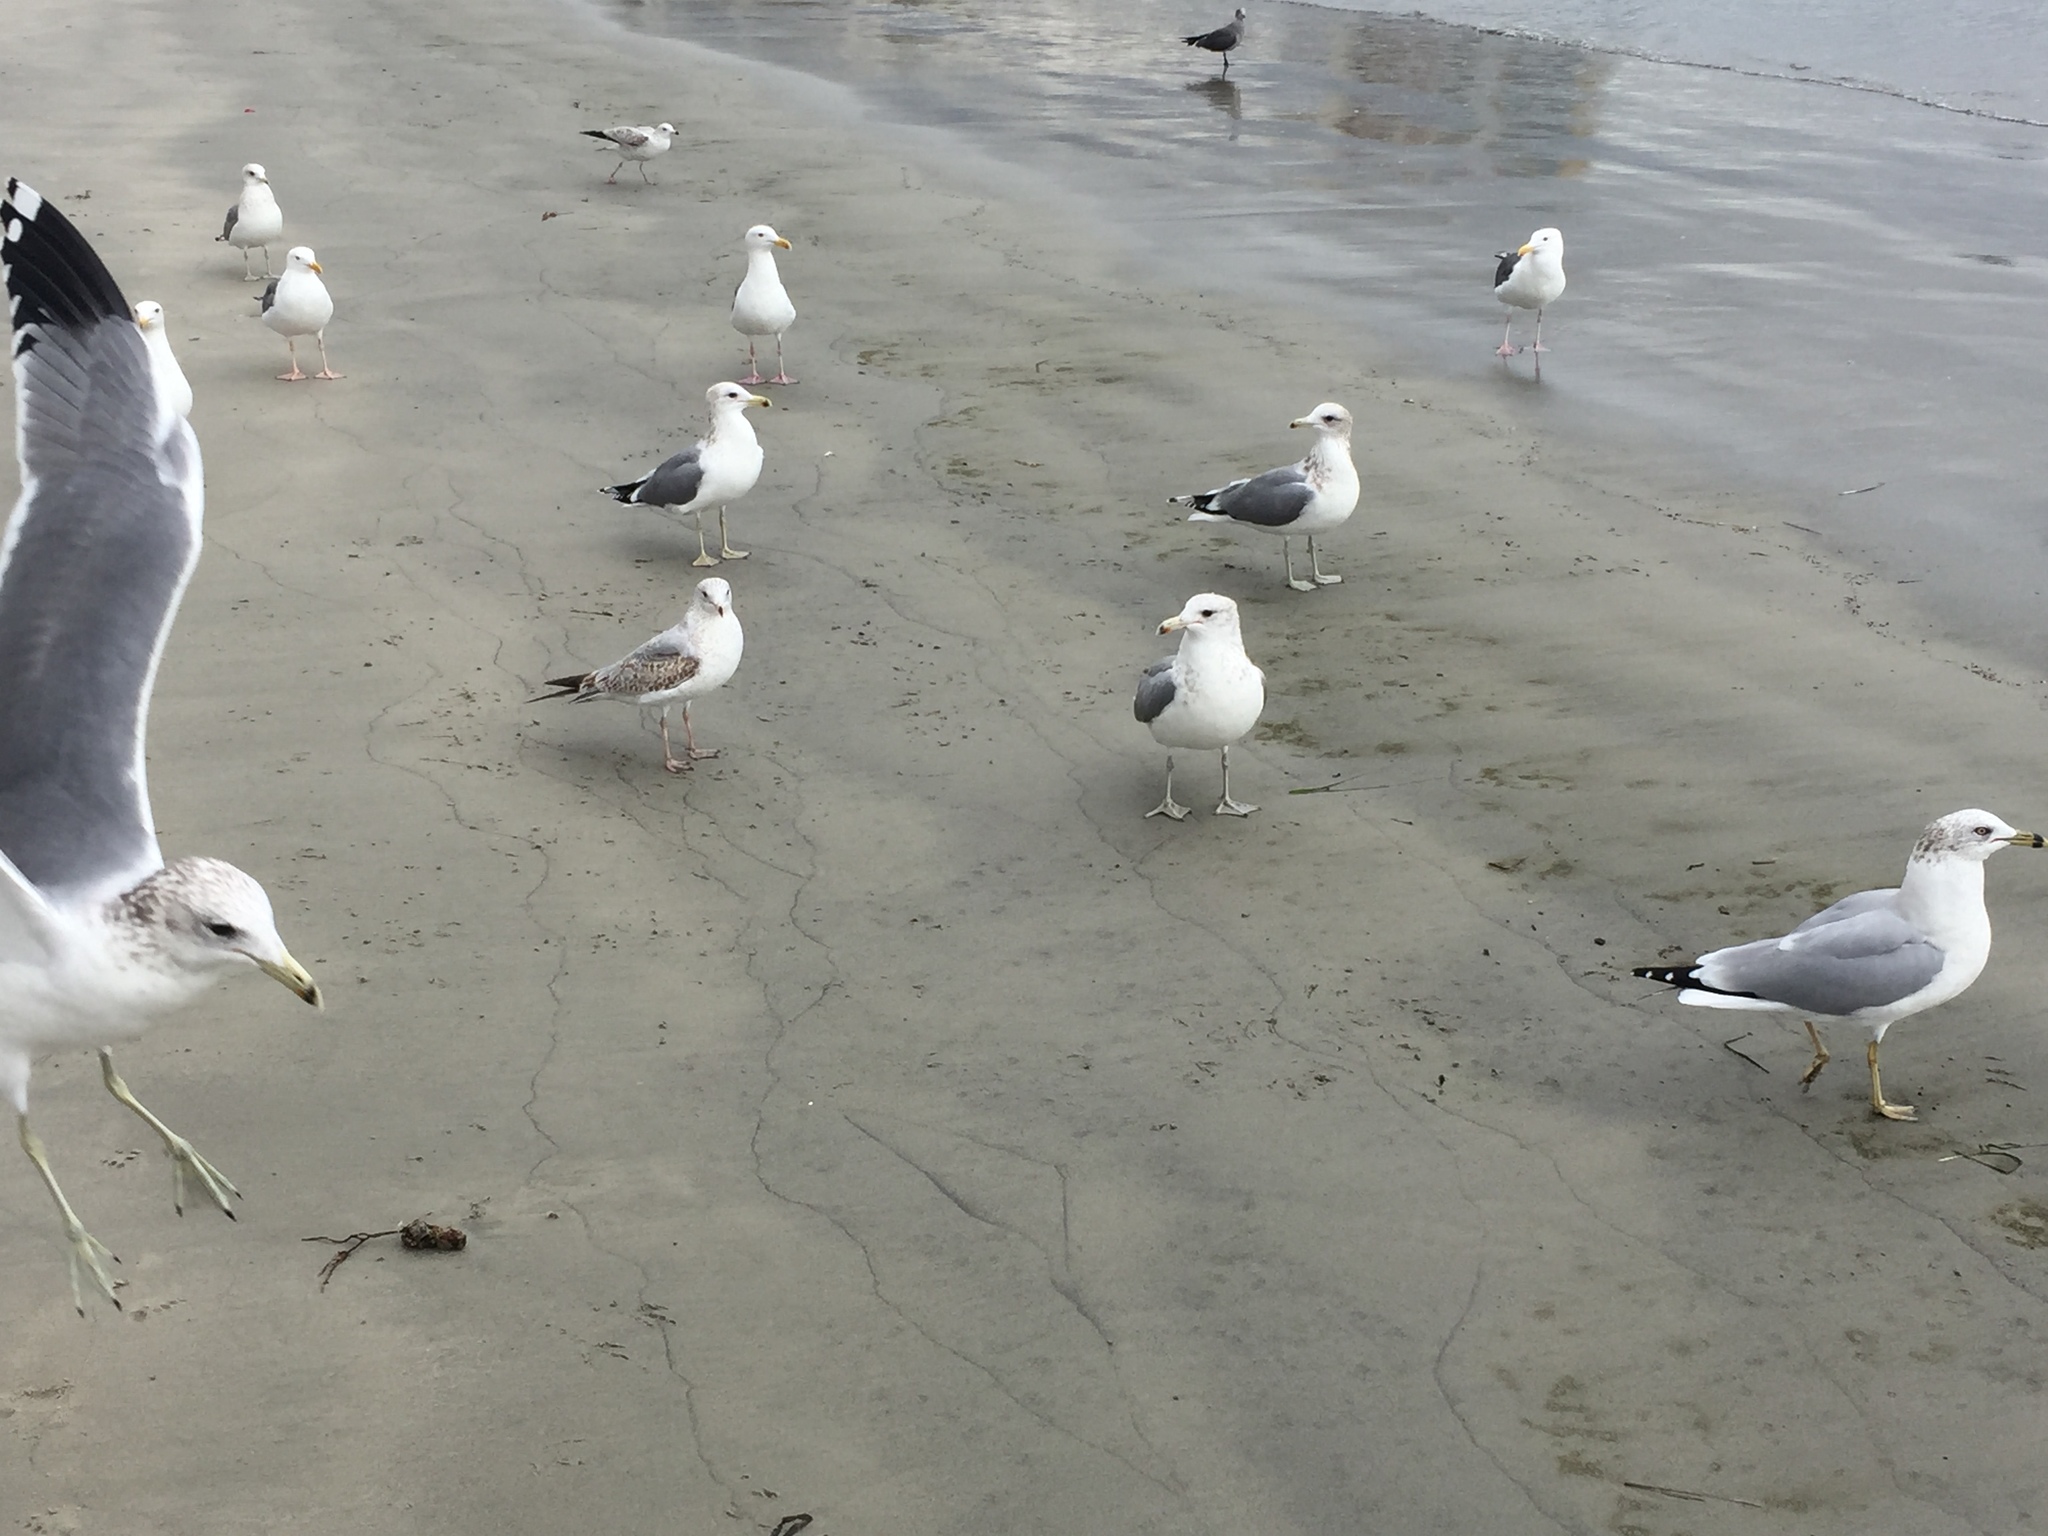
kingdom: Animalia
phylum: Chordata
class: Aves
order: Charadriiformes
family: Laridae
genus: Larus
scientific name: Larus occidentalis
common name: Western gull
